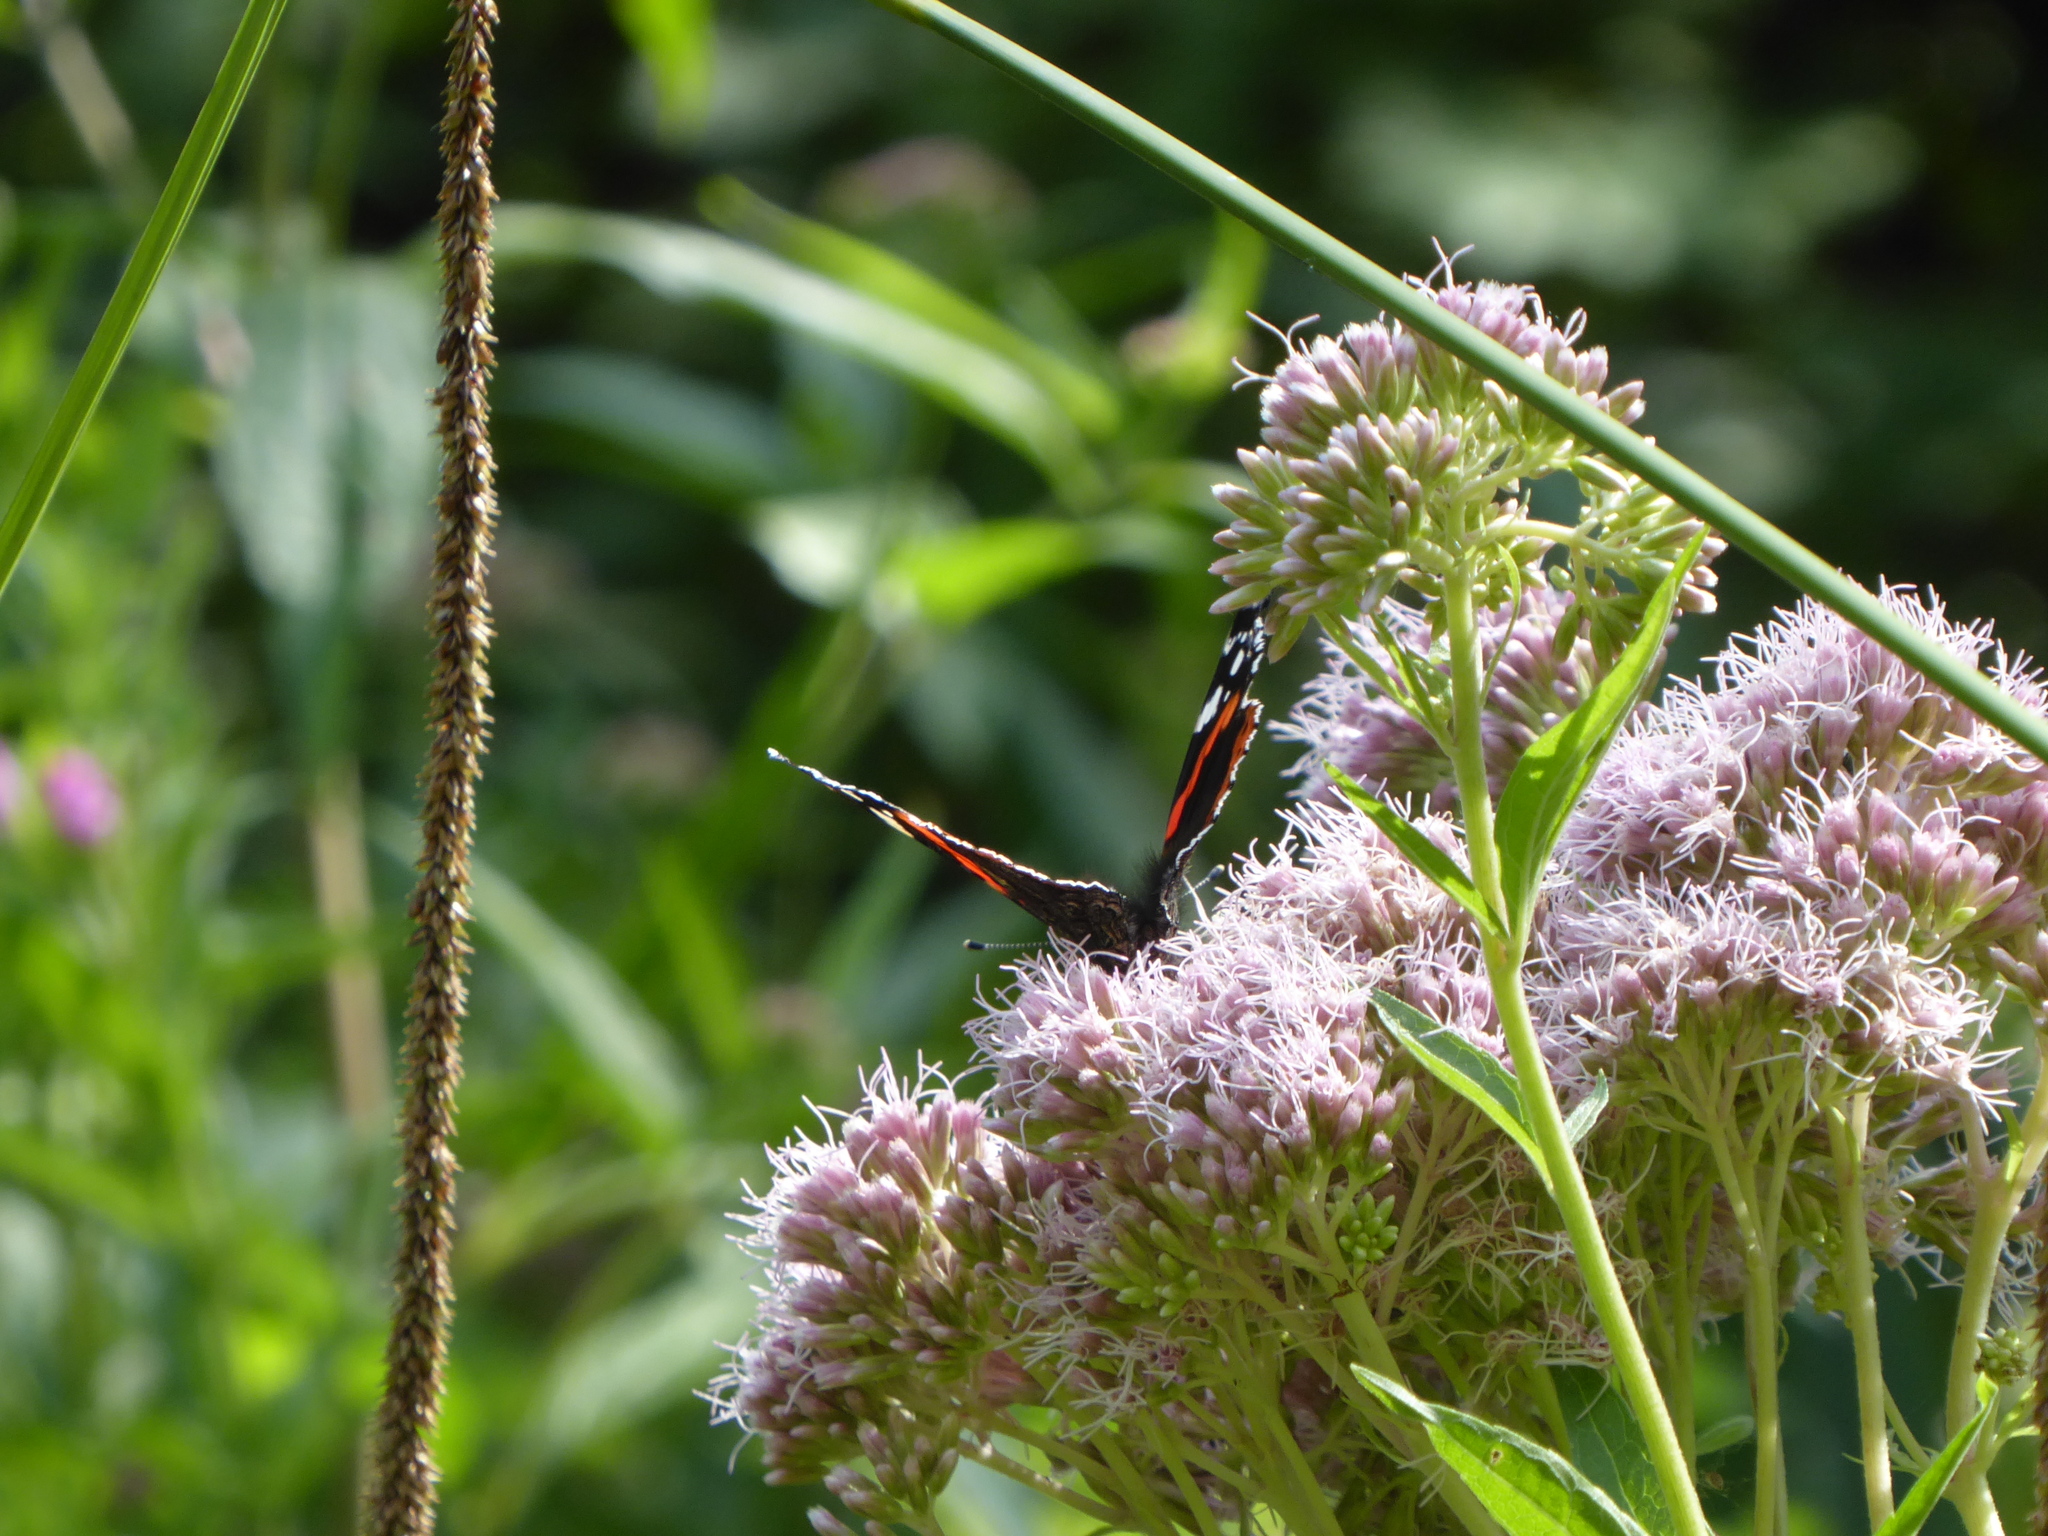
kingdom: Plantae
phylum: Tracheophyta
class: Magnoliopsida
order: Asterales
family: Asteraceae
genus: Eupatorium
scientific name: Eupatorium cannabinum
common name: Hemp-agrimony
